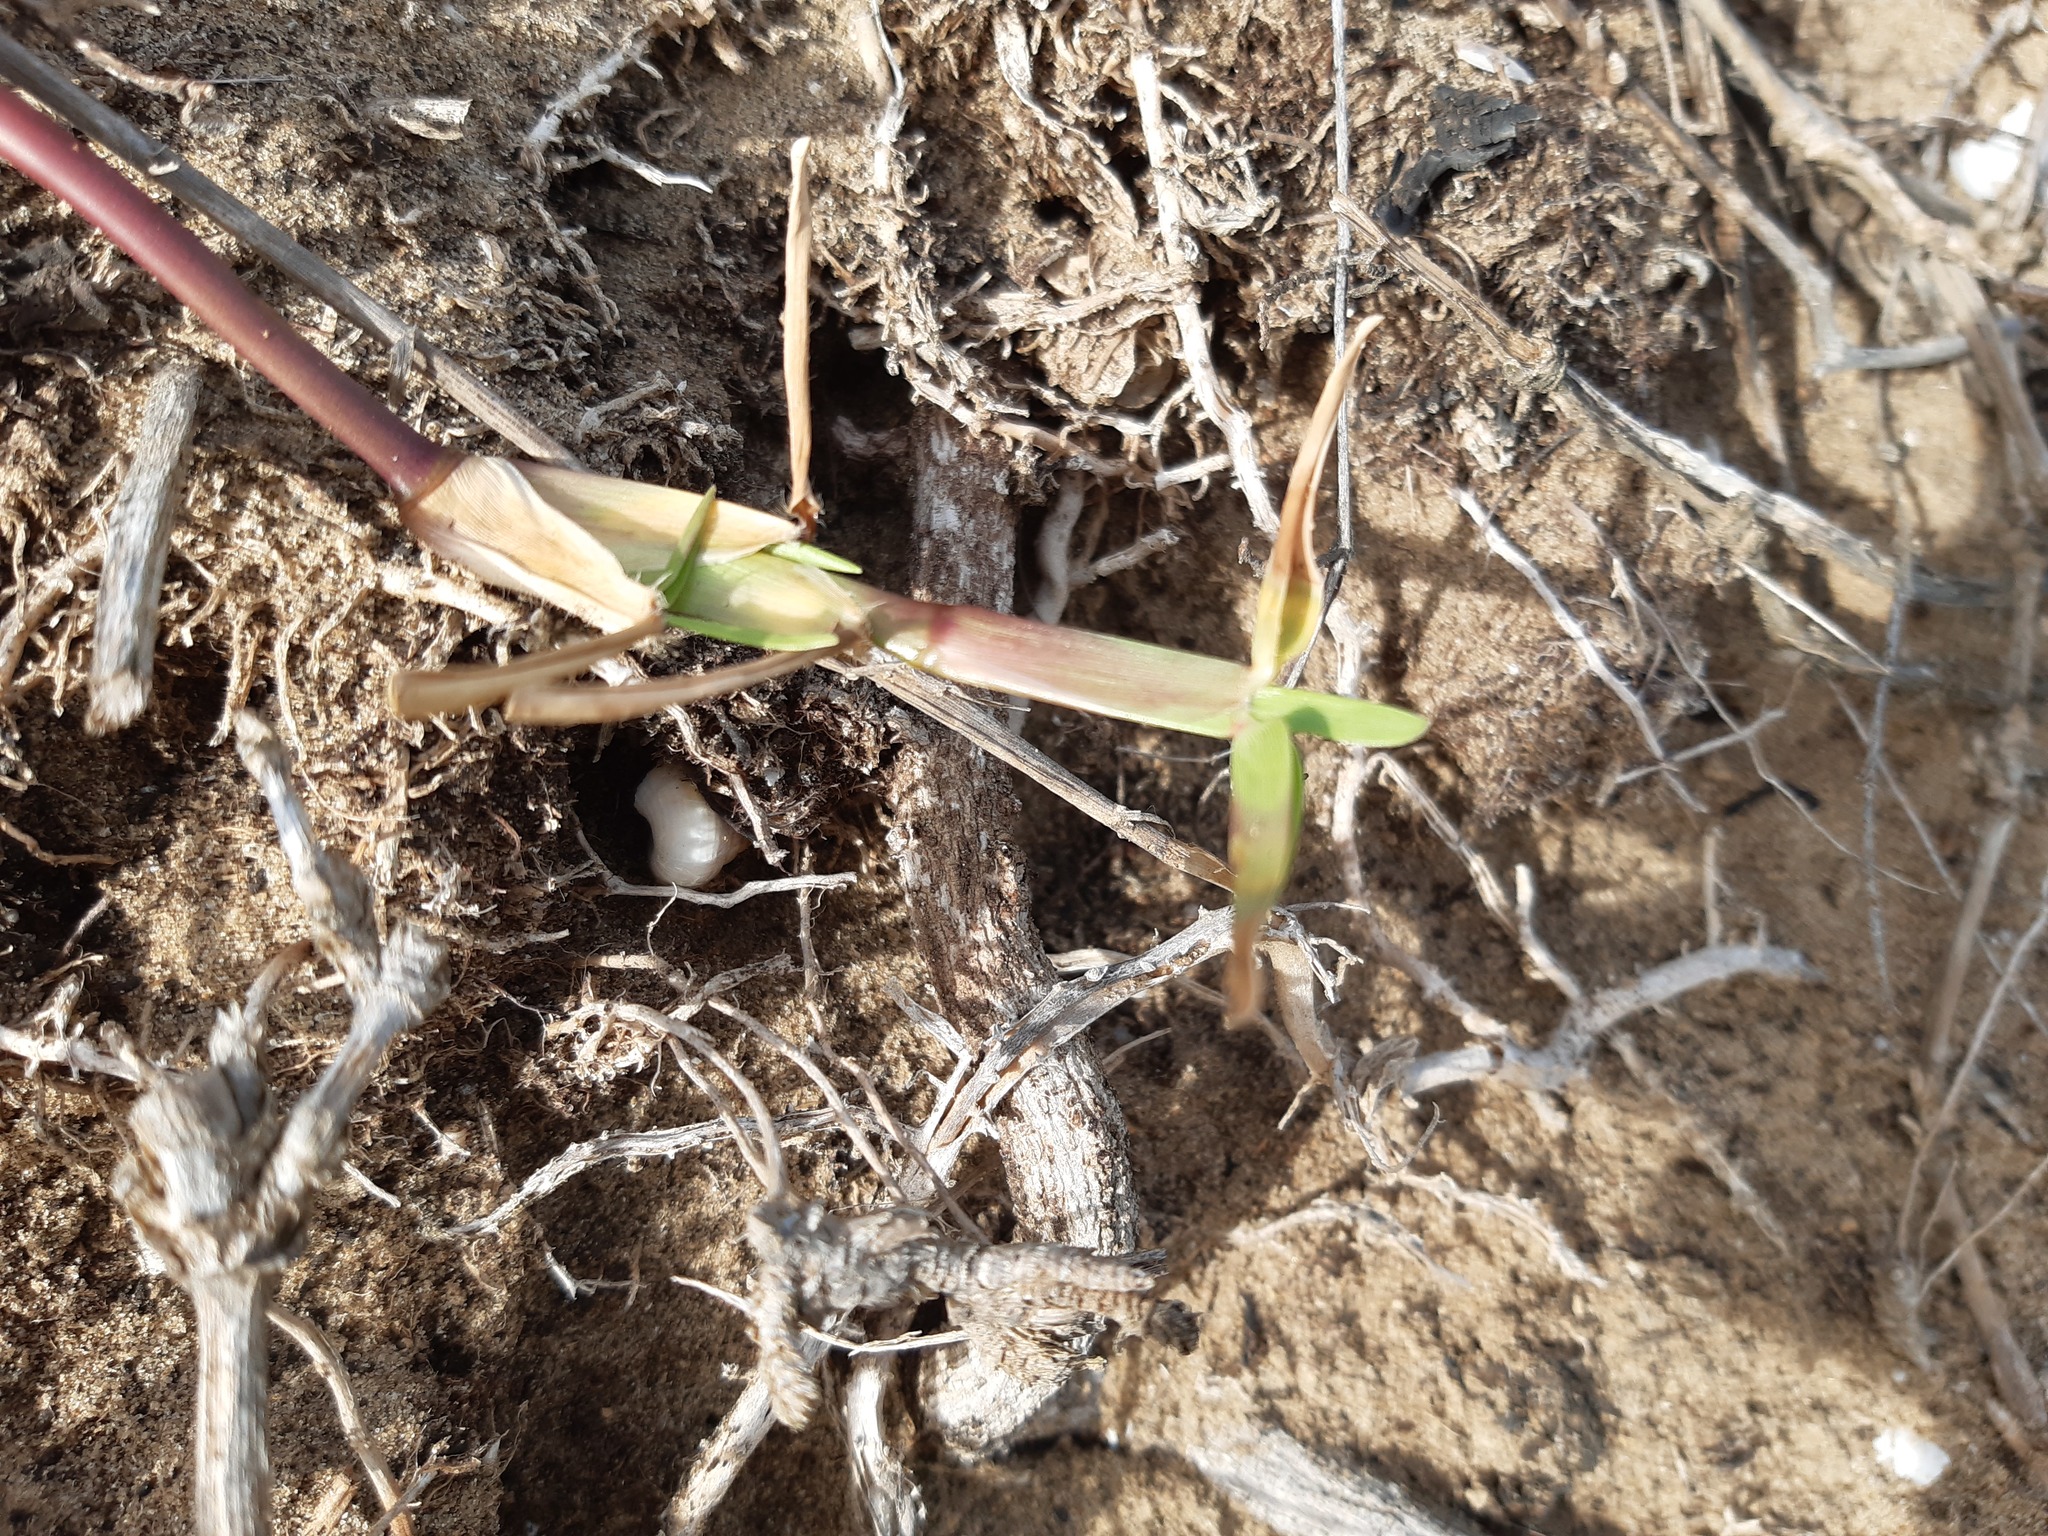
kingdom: Plantae
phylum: Tracheophyta
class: Liliopsida
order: Poales
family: Poaceae
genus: Stenotaphrum
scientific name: Stenotaphrum secundatum
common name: St. augustine grass
